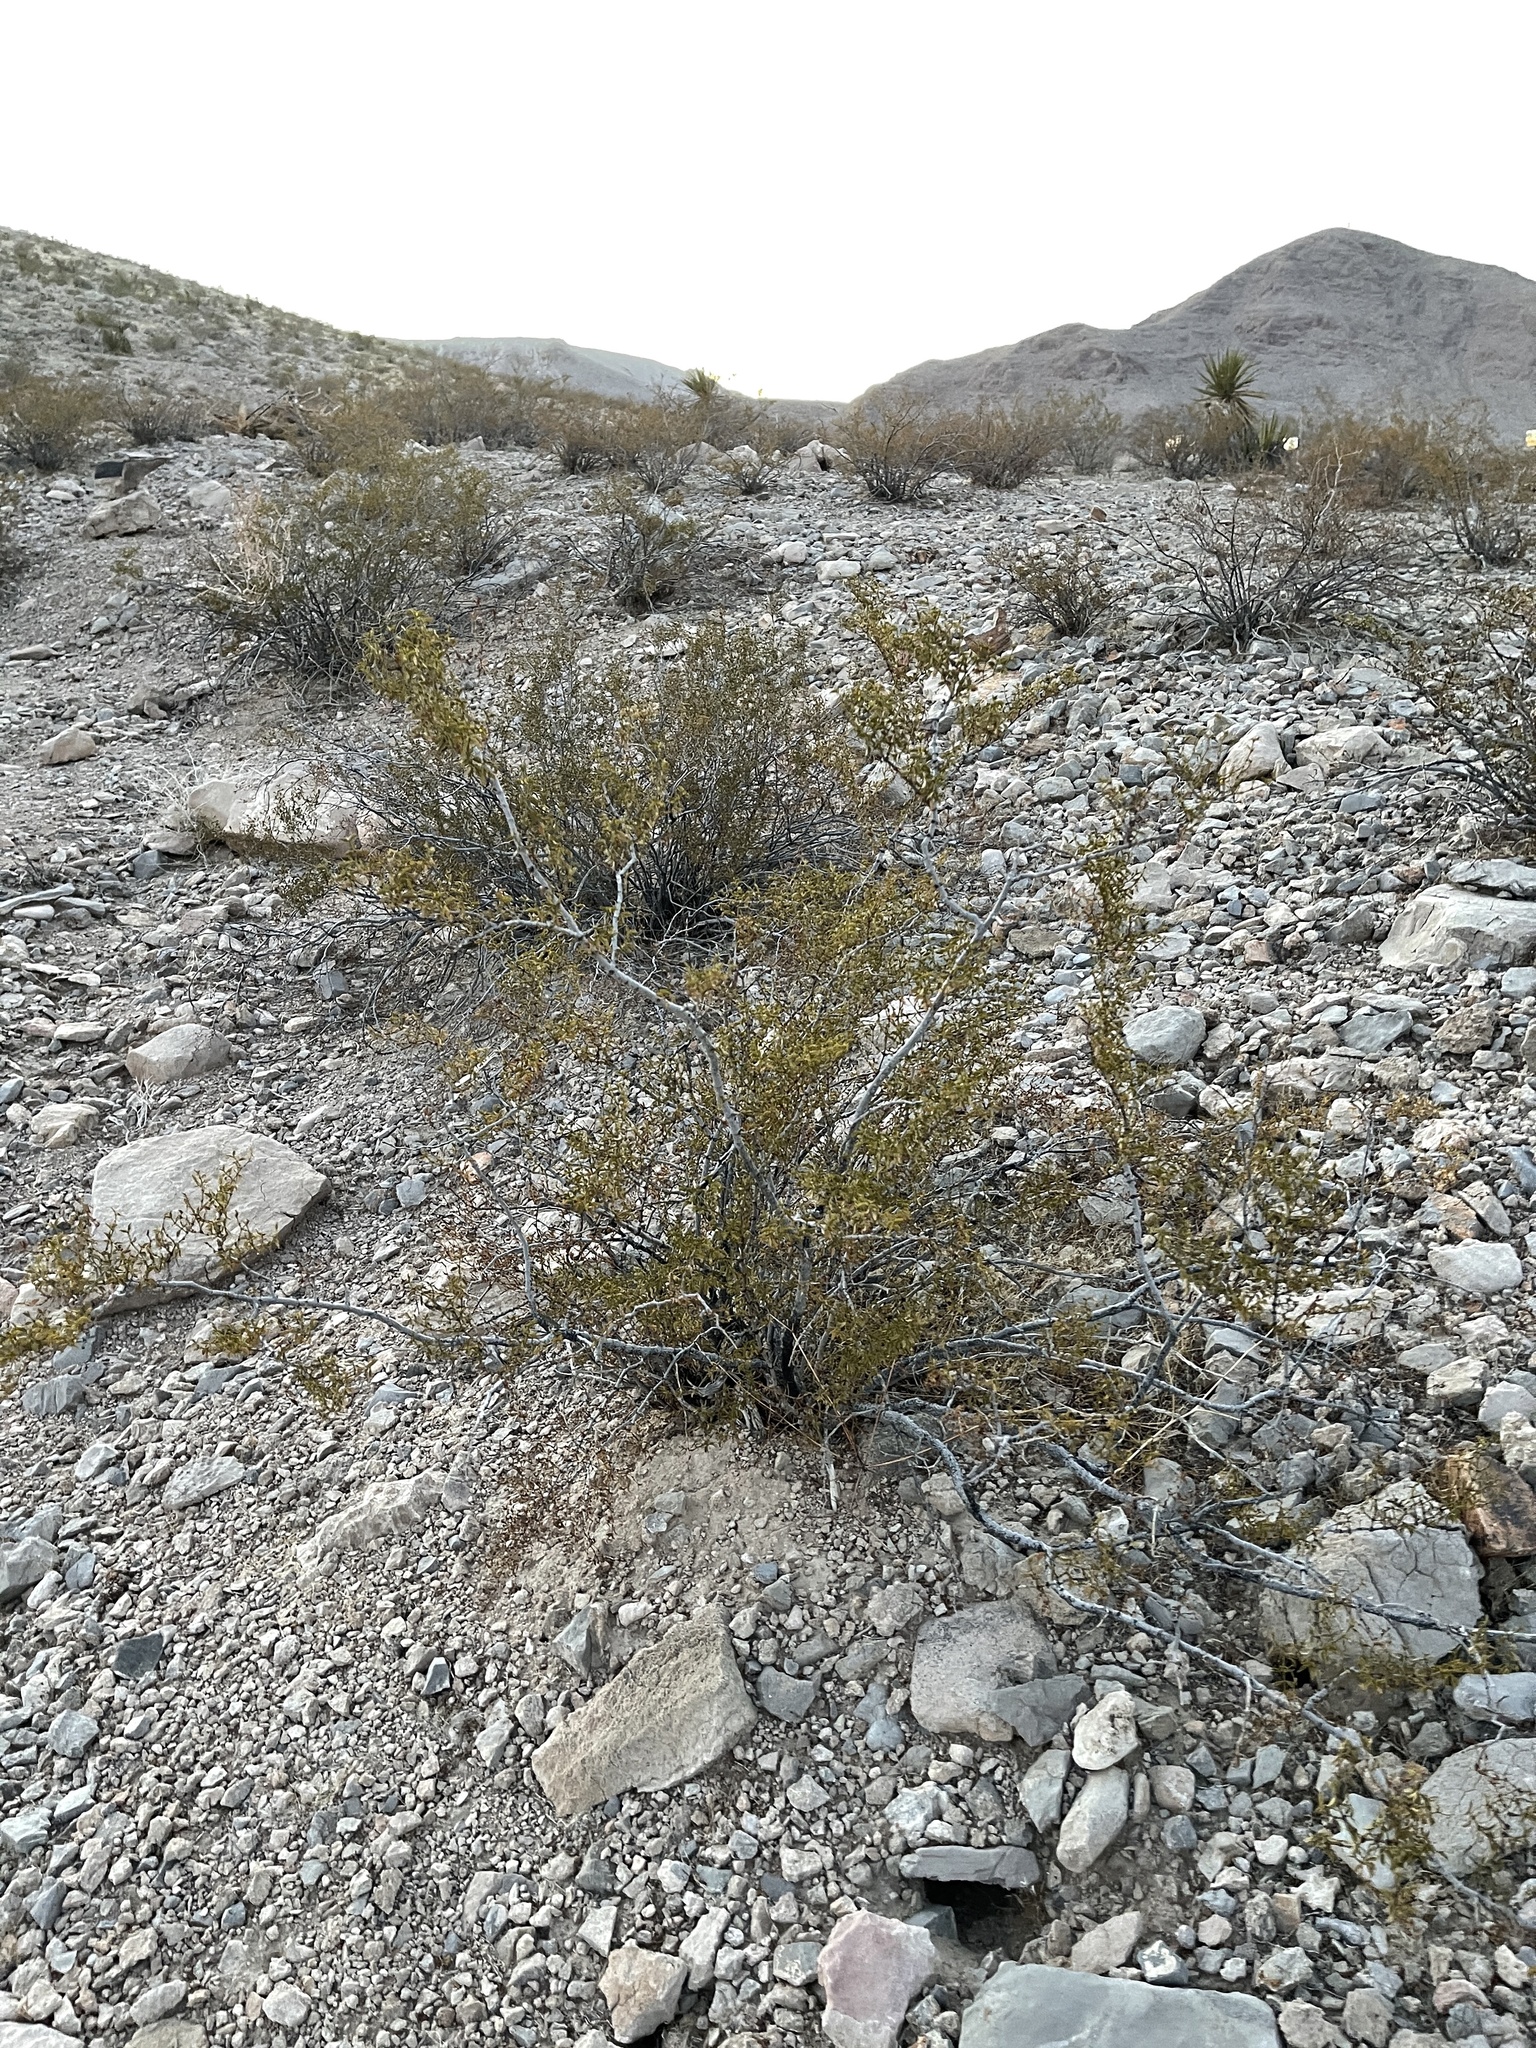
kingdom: Plantae
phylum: Tracheophyta
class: Magnoliopsida
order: Zygophyllales
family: Zygophyllaceae
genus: Larrea
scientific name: Larrea tridentata
